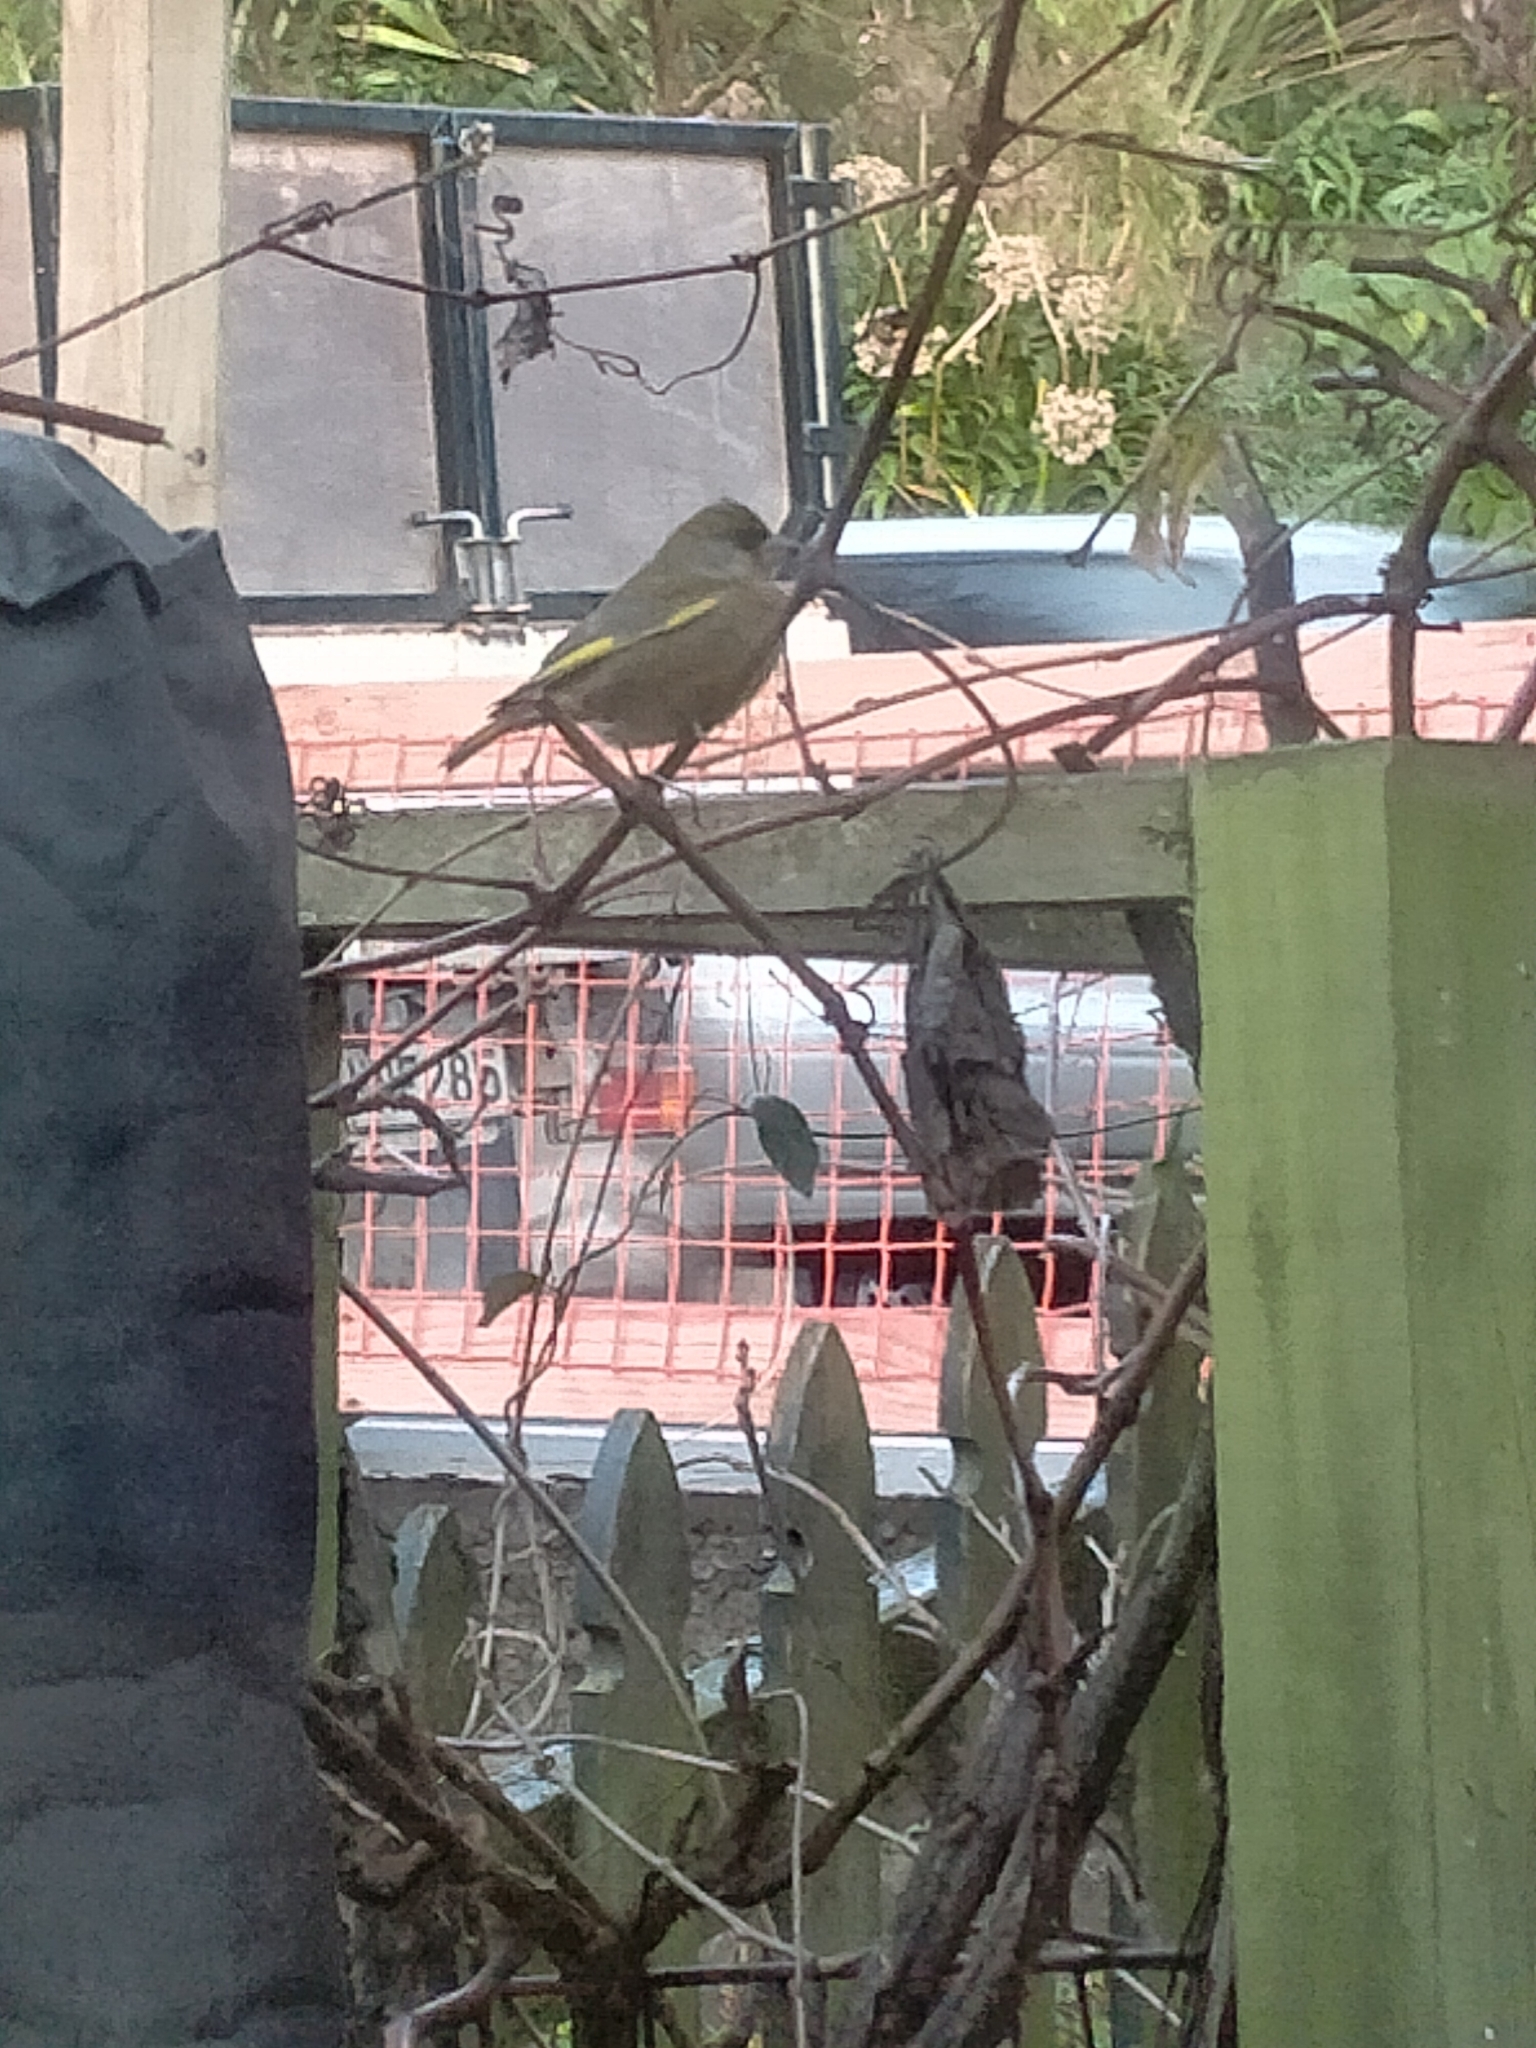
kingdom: Plantae
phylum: Tracheophyta
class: Liliopsida
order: Poales
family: Poaceae
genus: Chloris
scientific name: Chloris chloris
